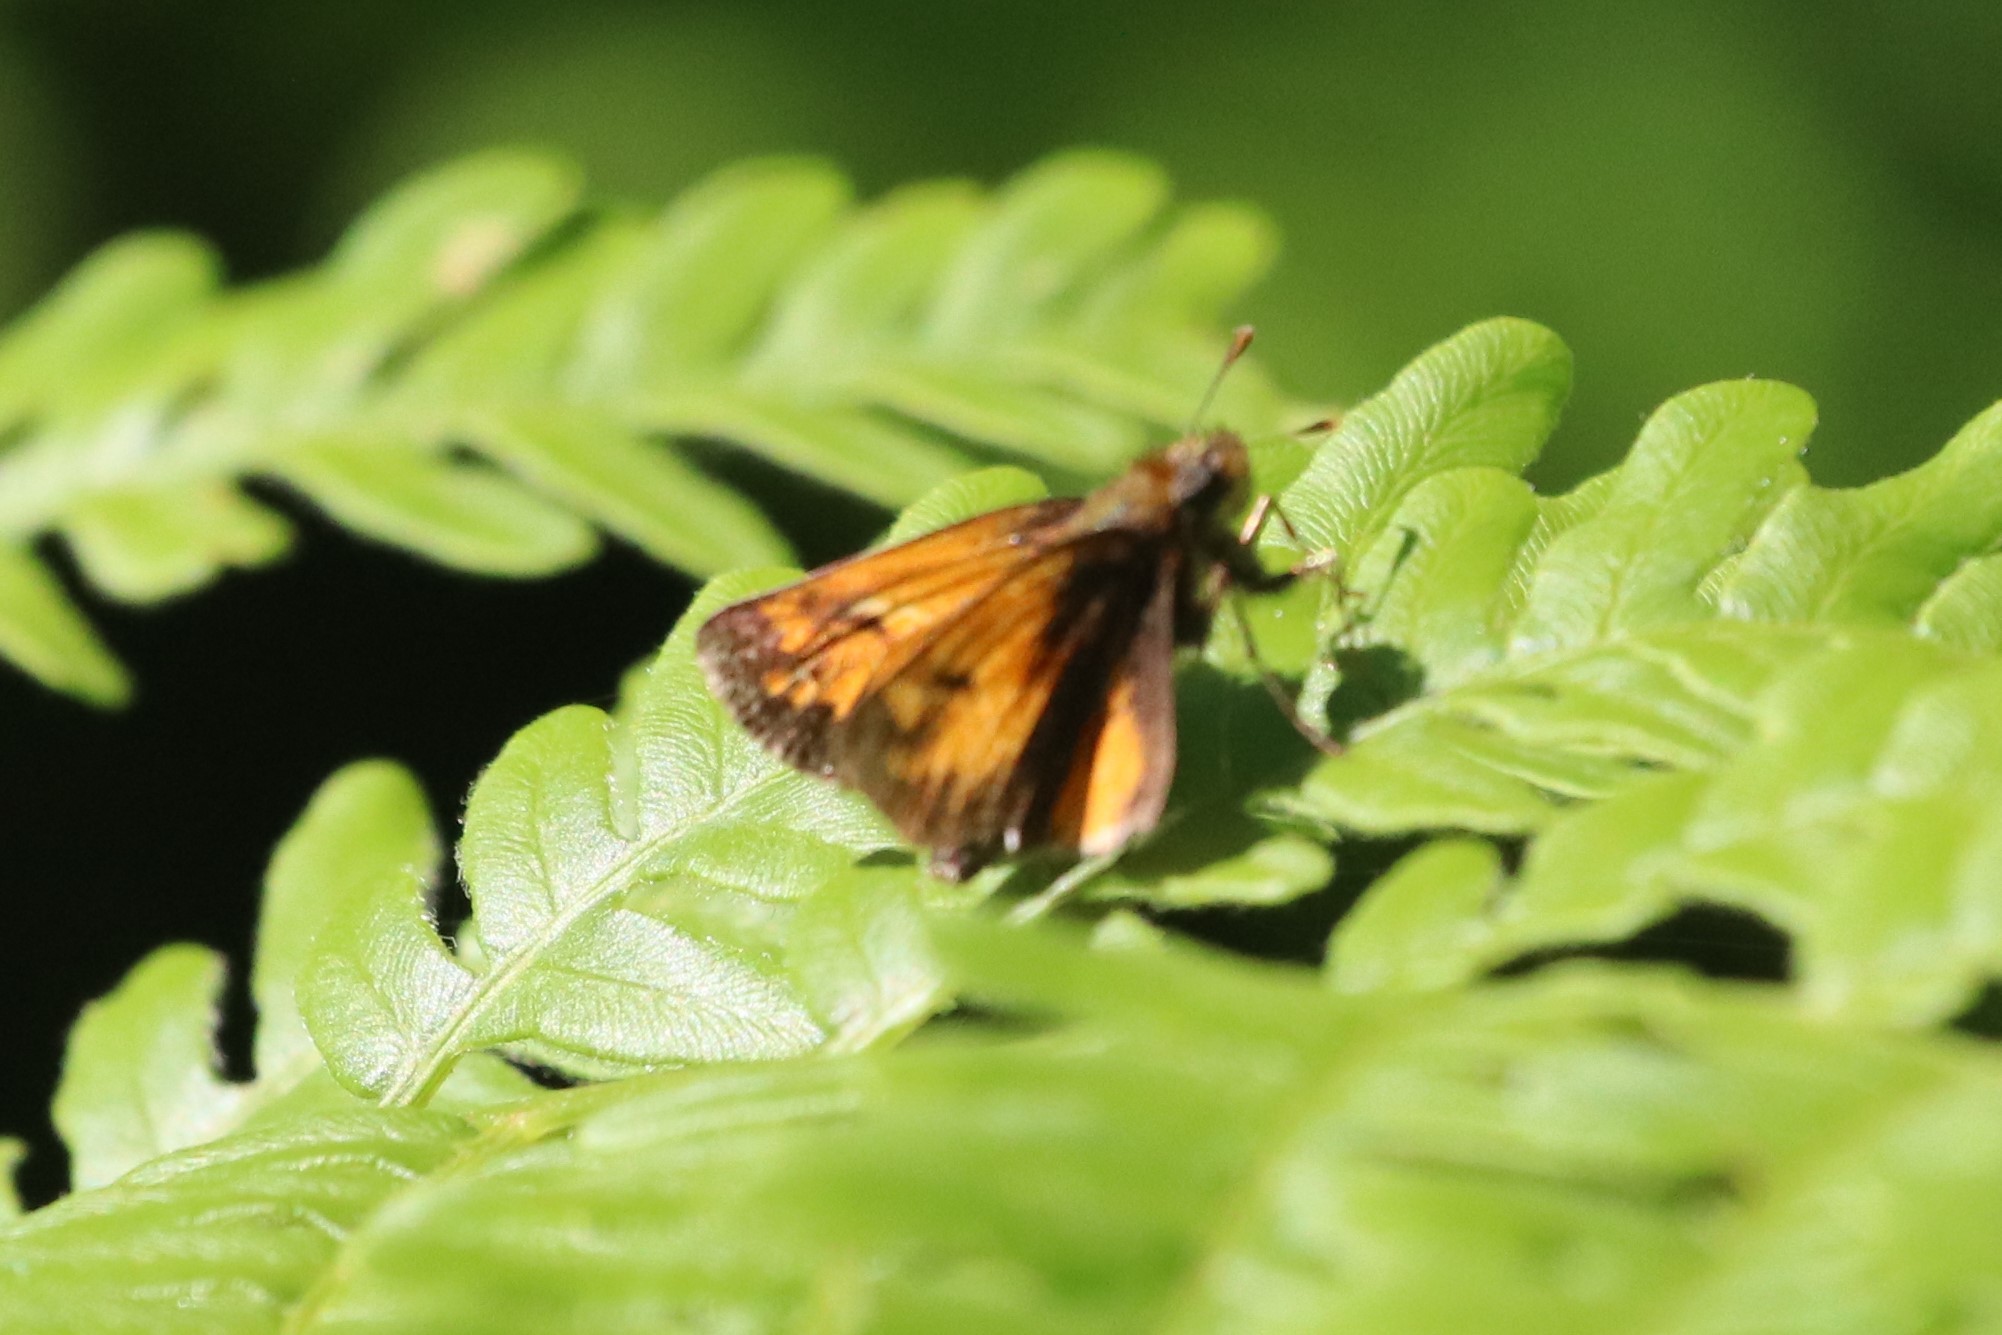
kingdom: Animalia
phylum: Arthropoda
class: Insecta
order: Lepidoptera
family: Hesperiidae
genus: Lon
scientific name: Lon hobomok
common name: Hobomok skipper
